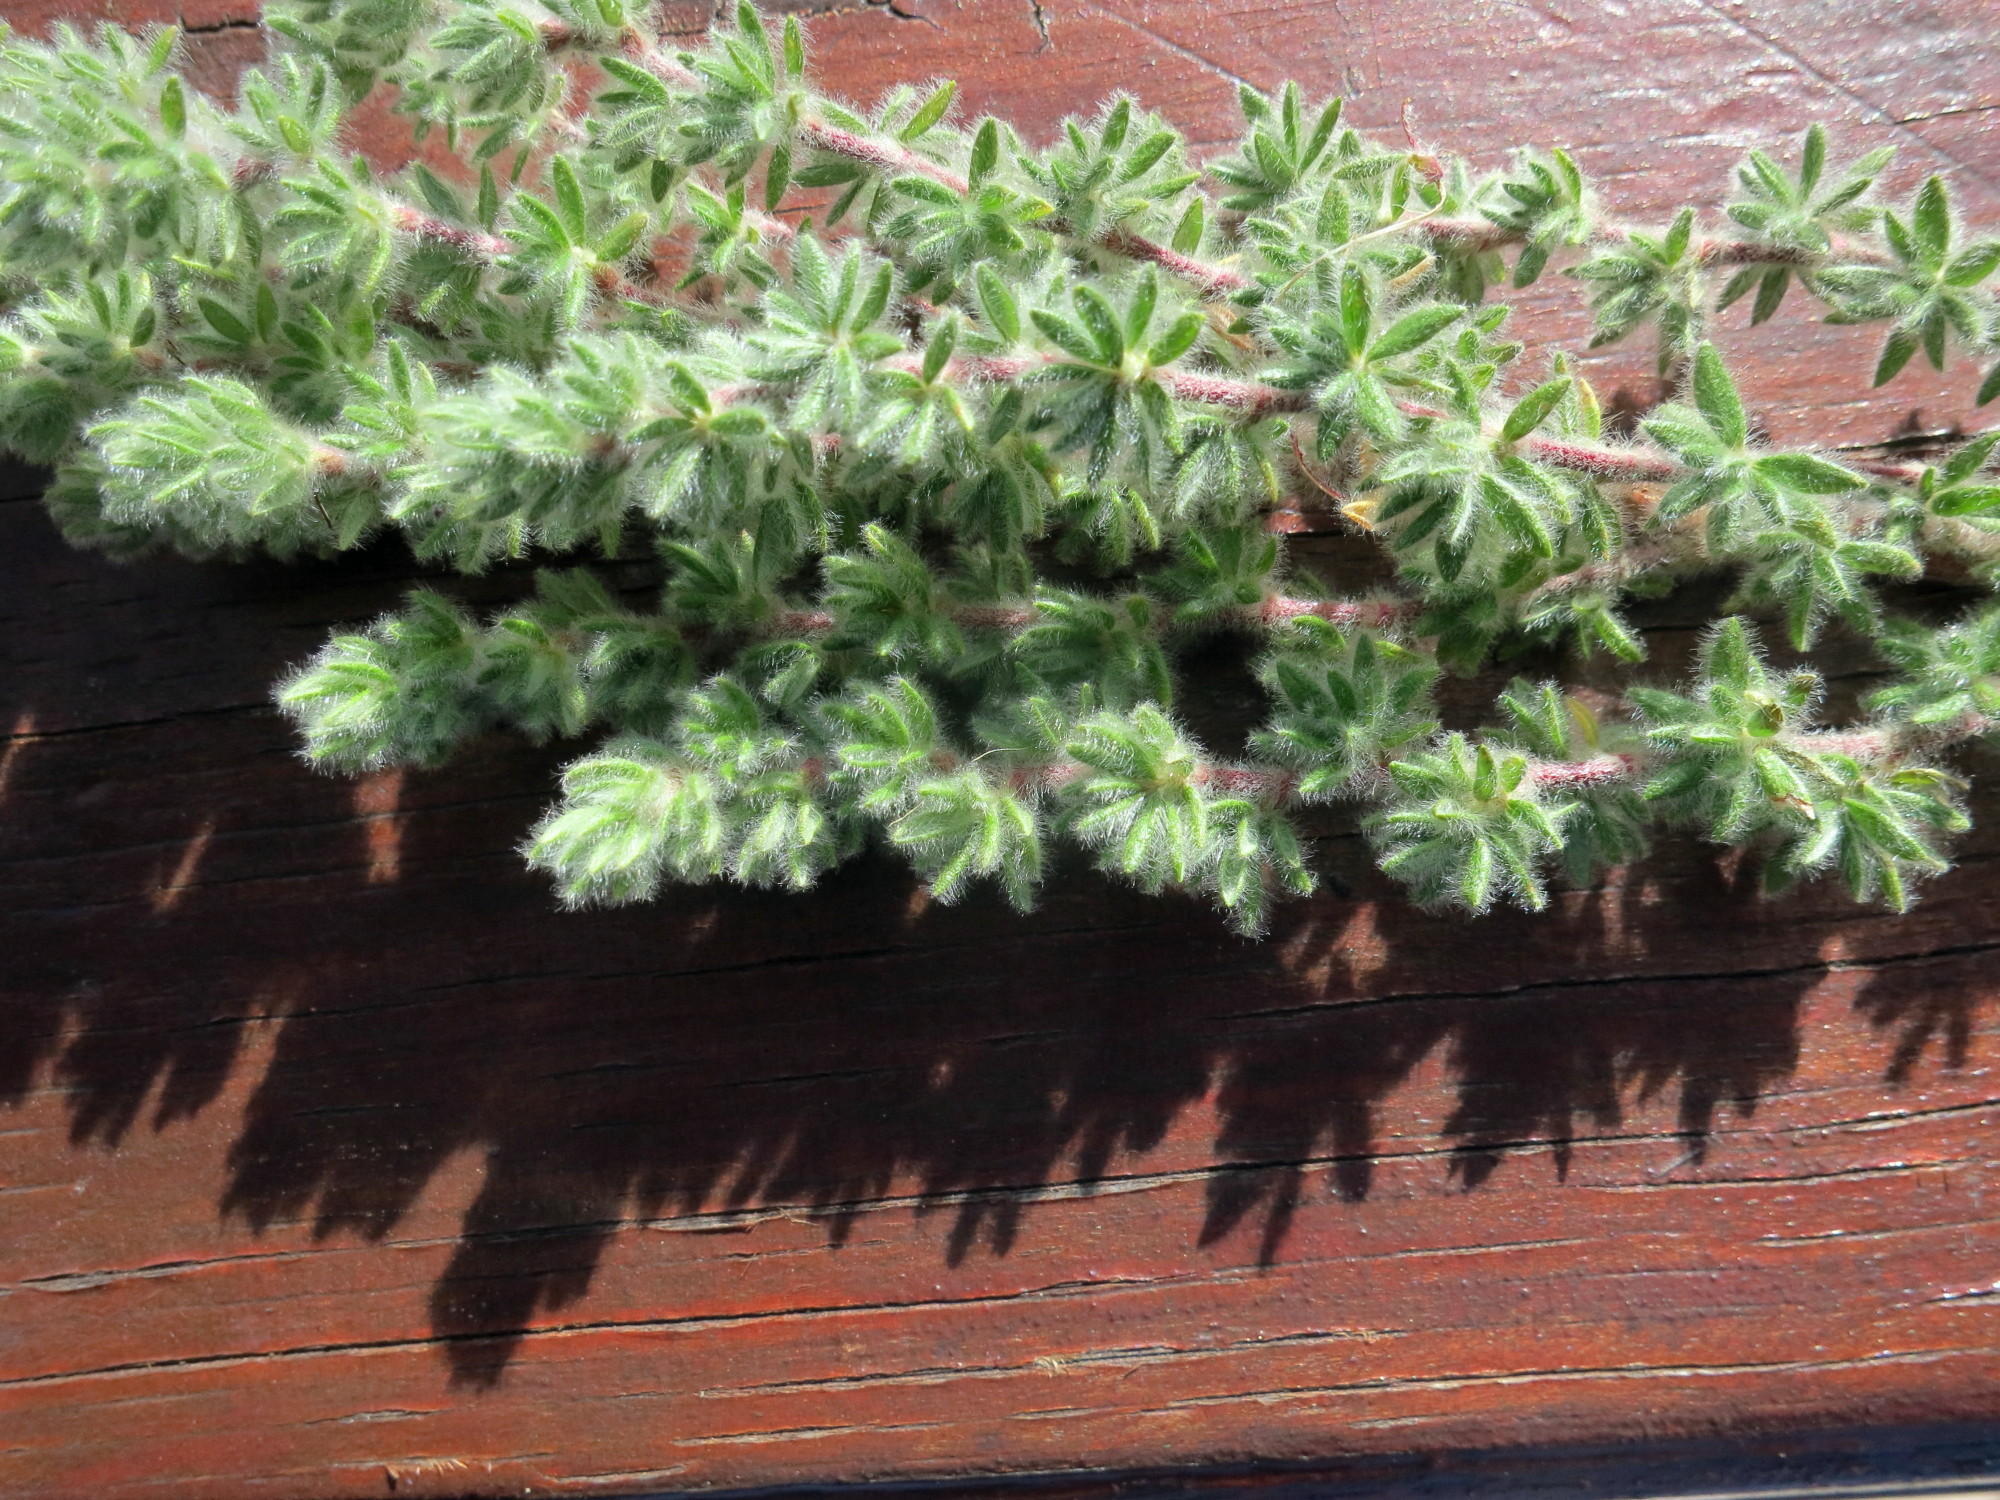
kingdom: Plantae
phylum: Tracheophyta
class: Magnoliopsida
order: Rosales
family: Rosaceae
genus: Cliffortia
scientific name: Cliffortia eriocephalina
